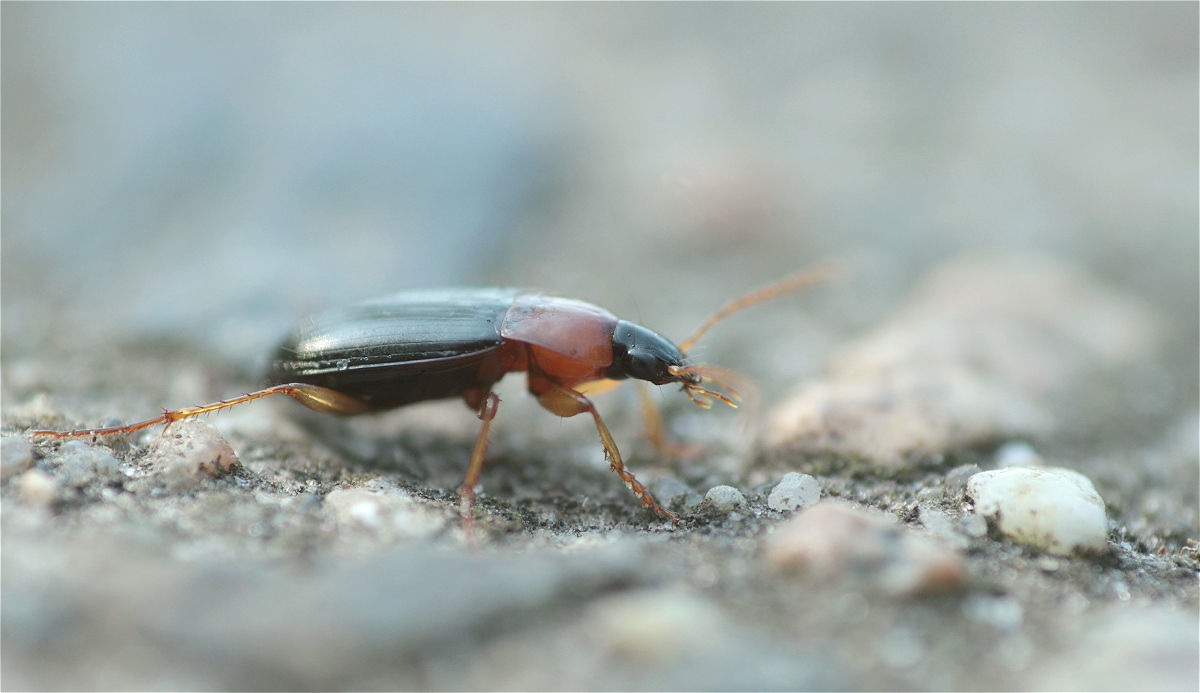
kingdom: Animalia
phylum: Arthropoda
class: Insecta
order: Coleoptera
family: Carabidae
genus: Calathus
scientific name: Calathus melanocephalus
